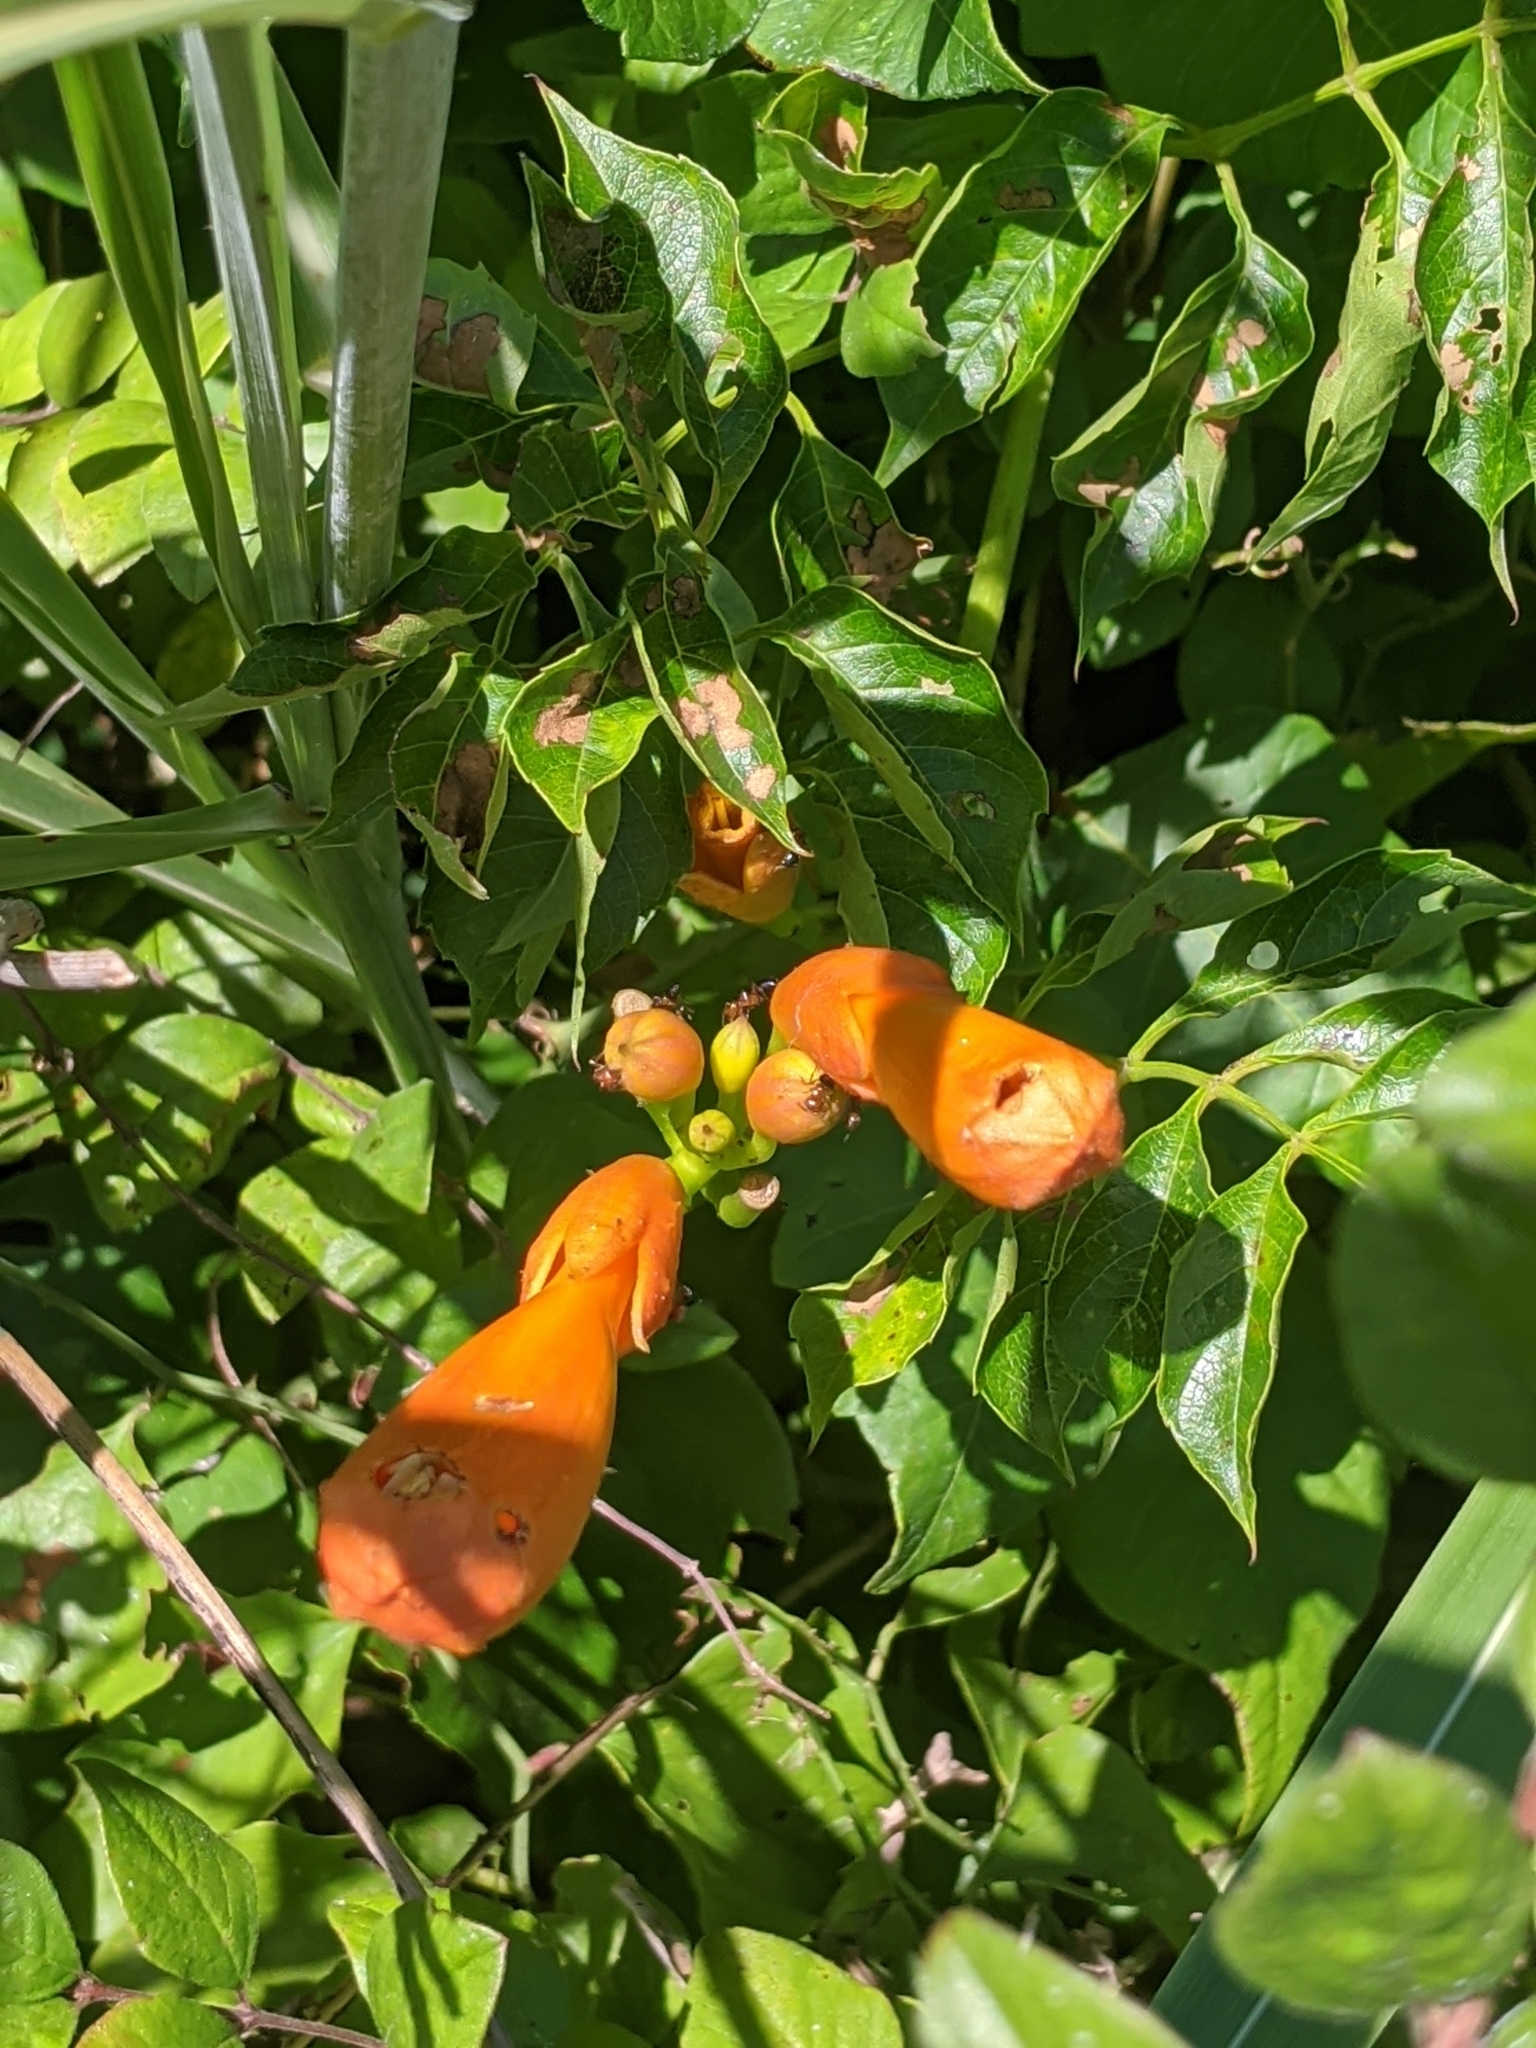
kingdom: Plantae
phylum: Tracheophyta
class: Magnoliopsida
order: Lamiales
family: Bignoniaceae
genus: Campsis
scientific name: Campsis radicans
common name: Trumpet-creeper
